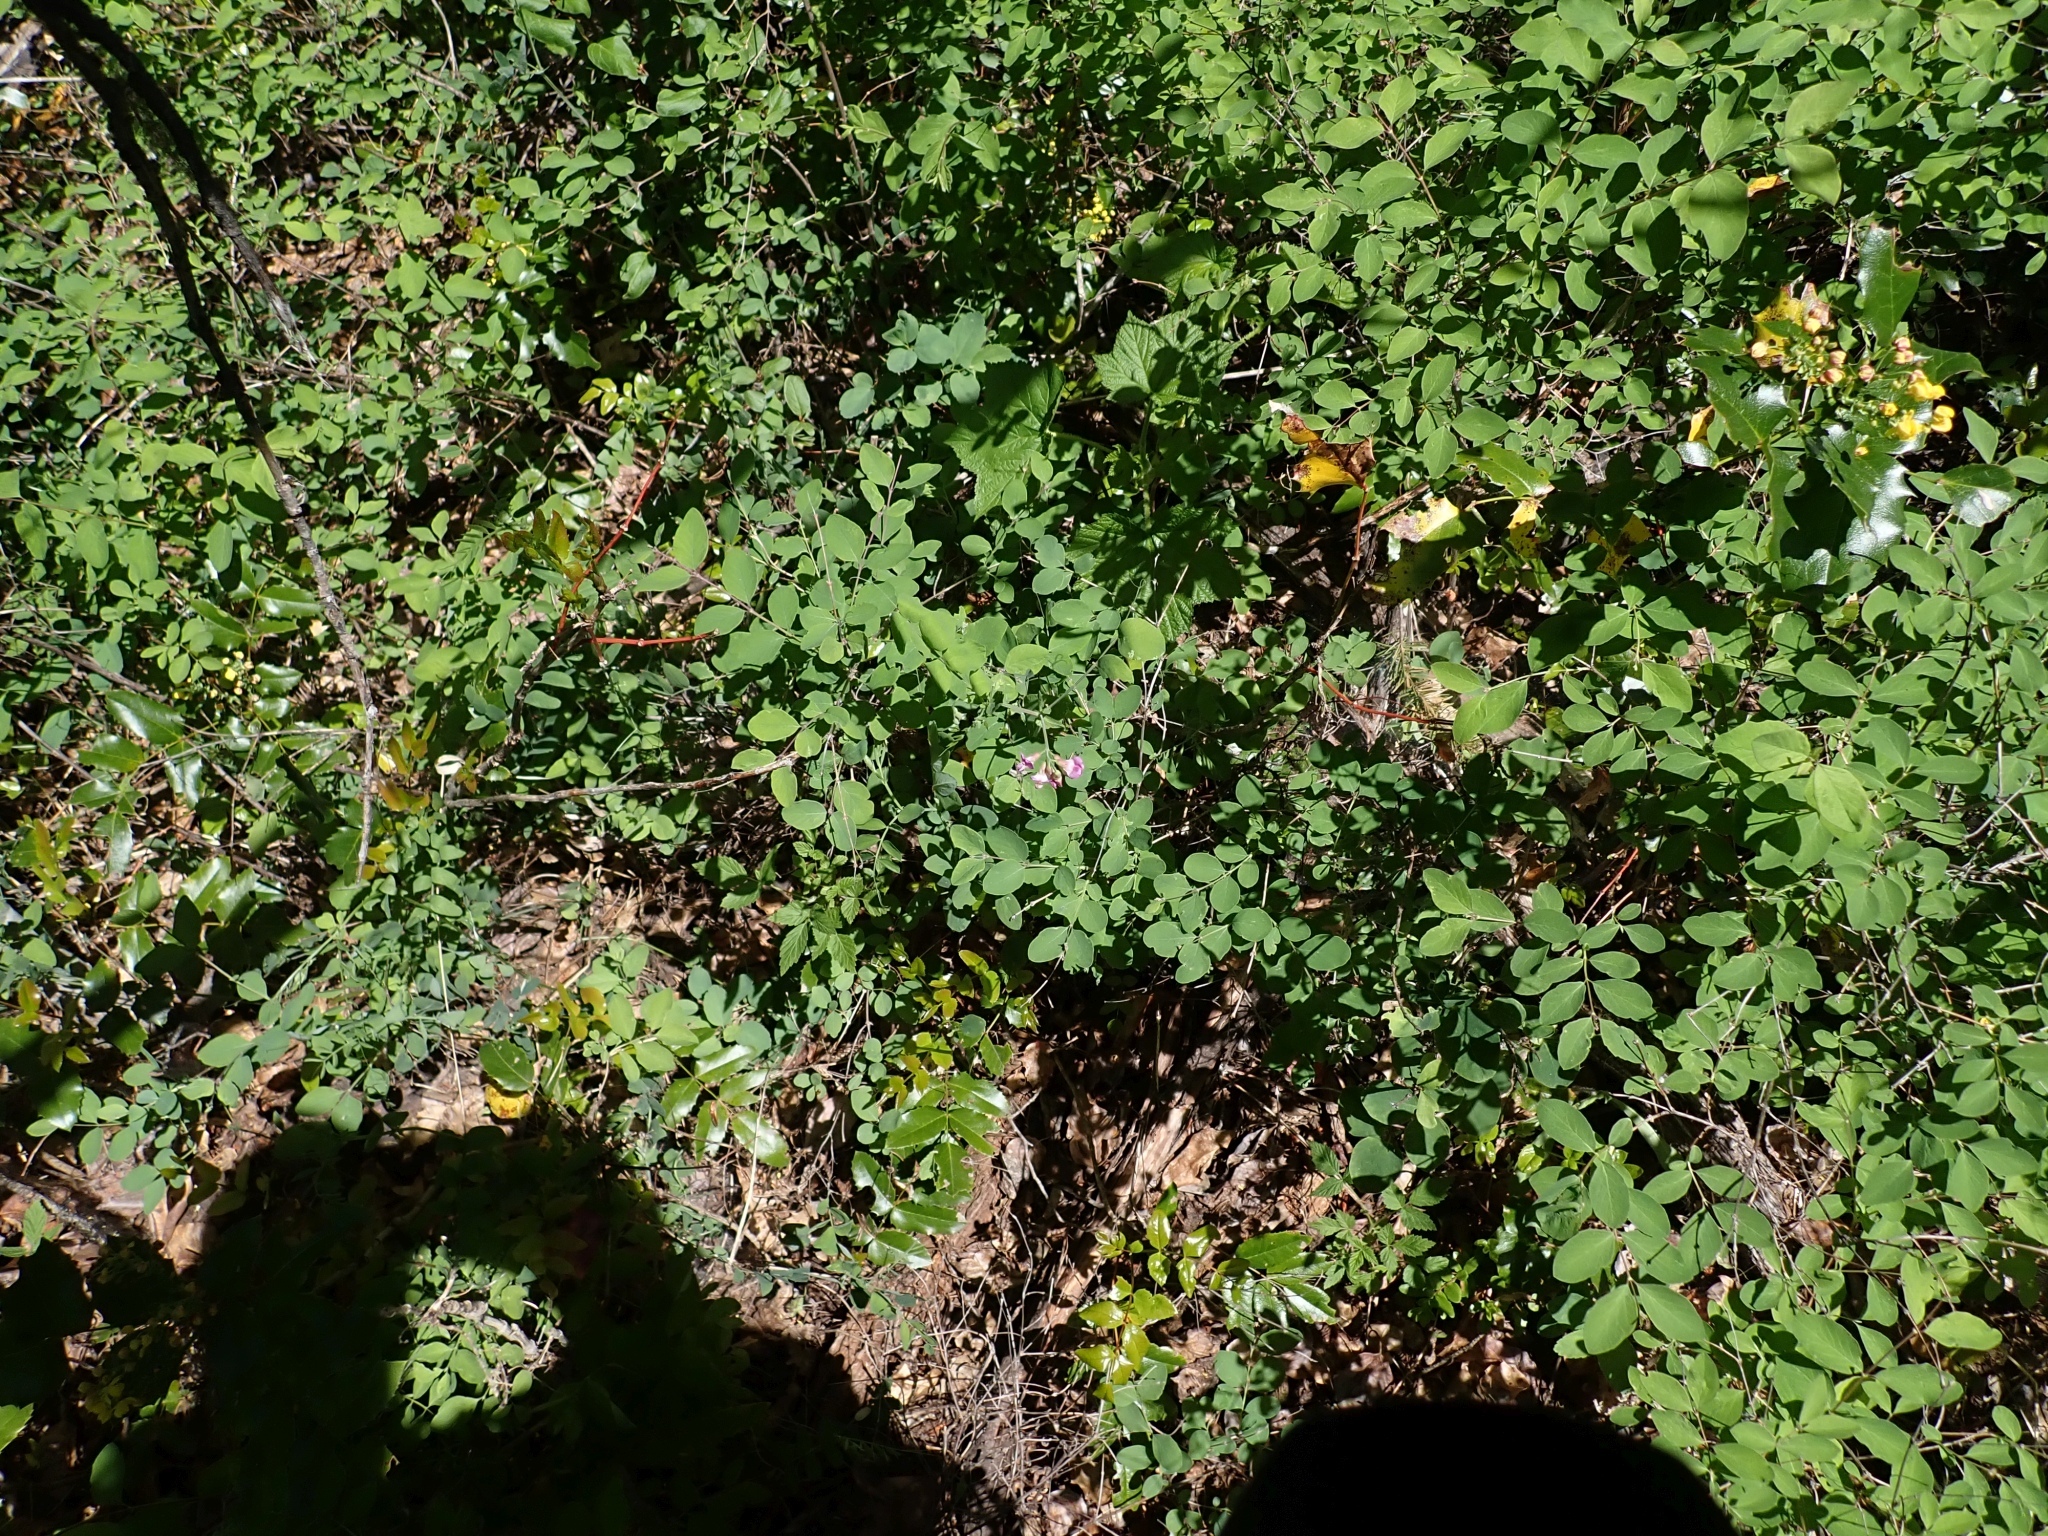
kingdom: Plantae
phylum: Tracheophyta
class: Magnoliopsida
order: Fabales
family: Fabaceae
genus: Lathyrus
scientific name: Lathyrus nevadensis
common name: Sierra nevada peavine
